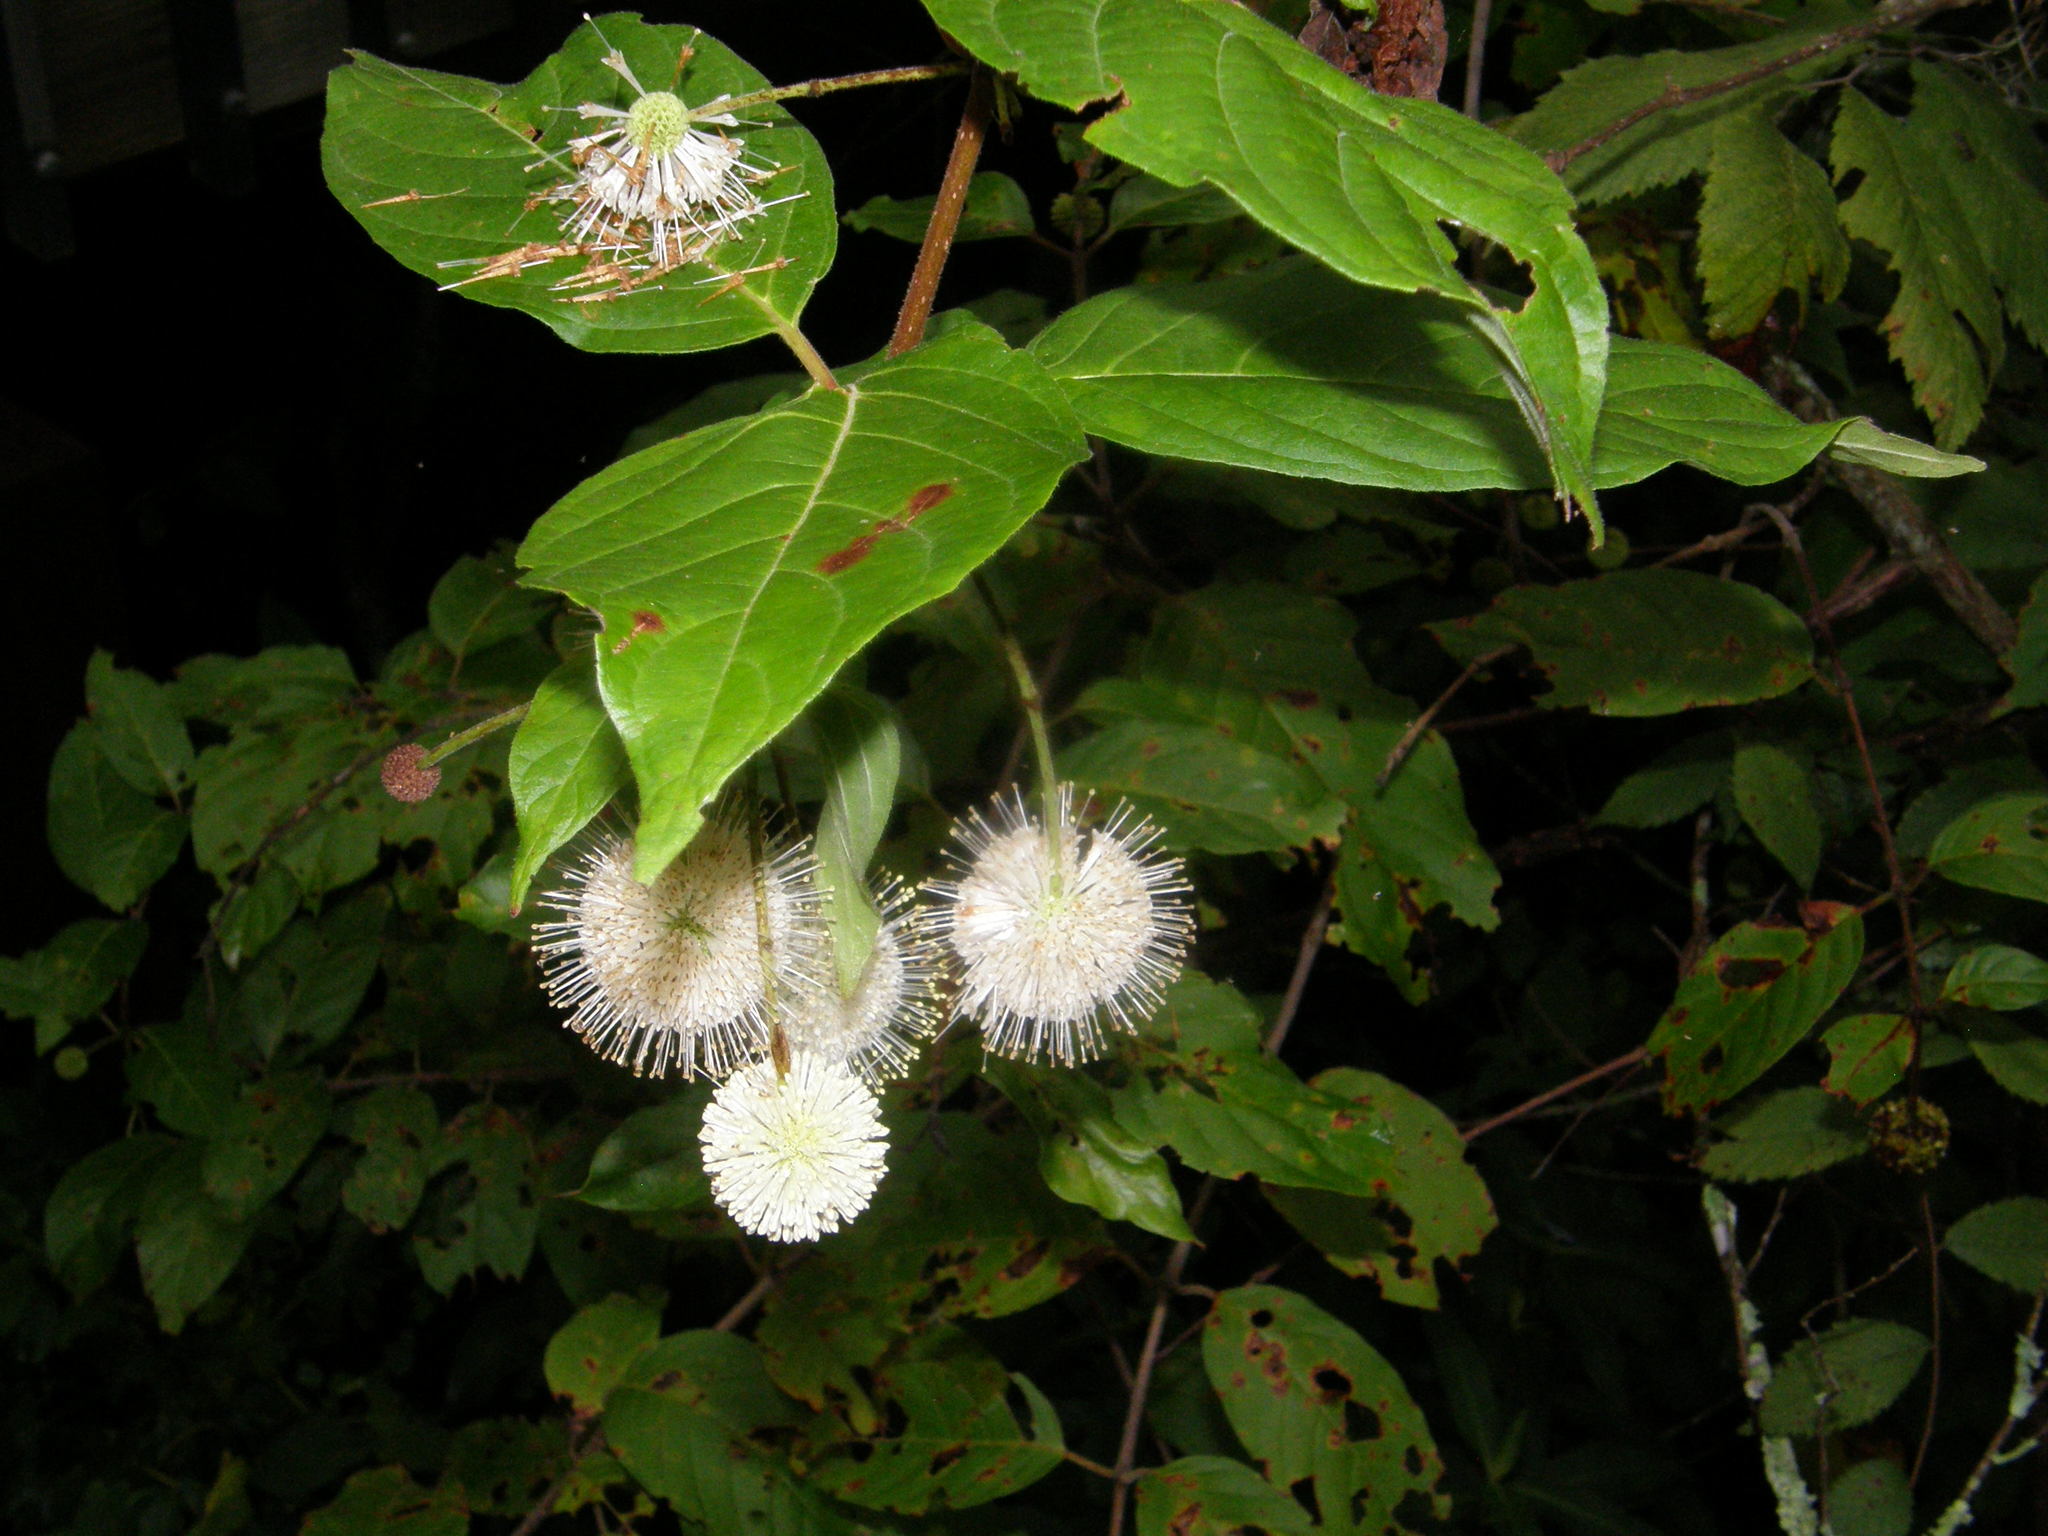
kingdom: Plantae
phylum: Tracheophyta
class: Magnoliopsida
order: Gentianales
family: Rubiaceae
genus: Cephalanthus
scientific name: Cephalanthus occidentalis
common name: Button-willow
